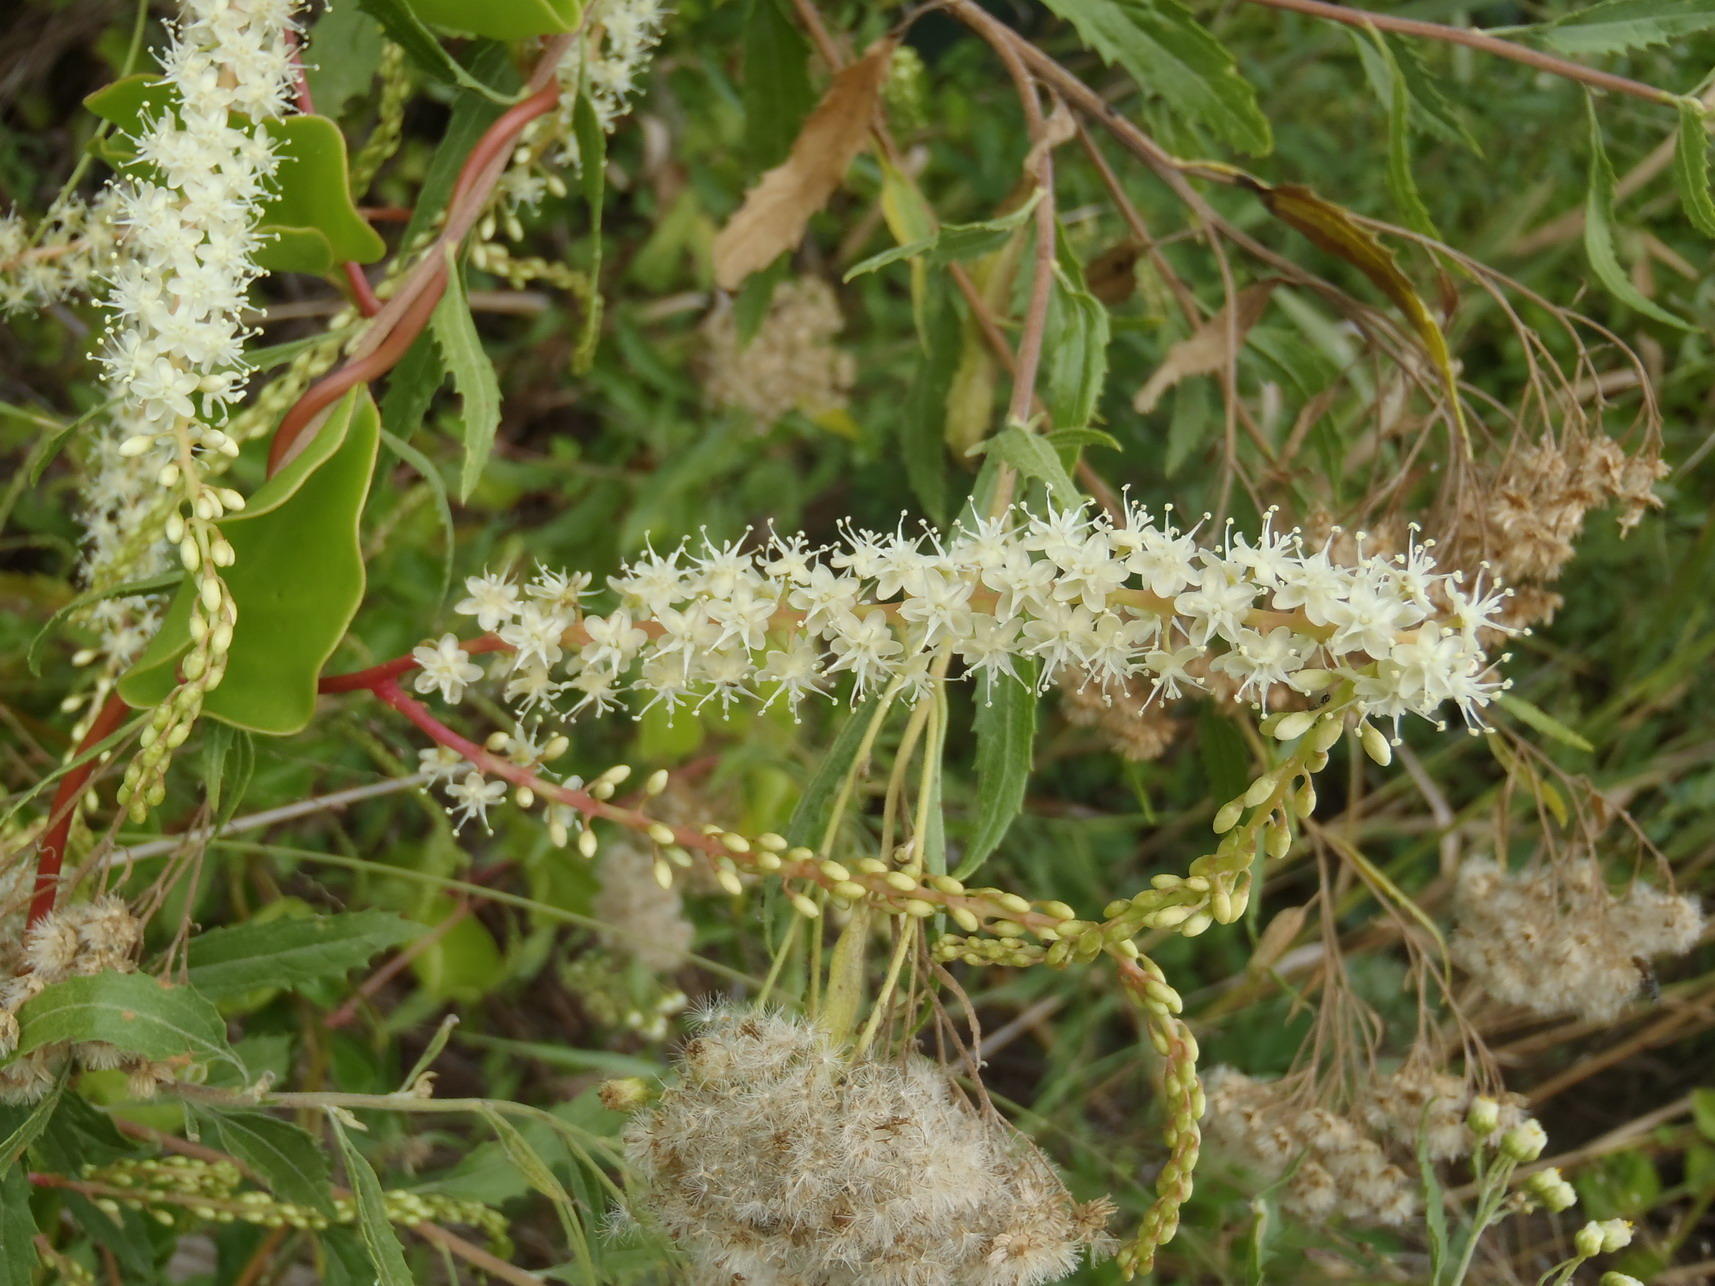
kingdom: Plantae
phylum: Tracheophyta
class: Magnoliopsida
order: Caryophyllales
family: Basellaceae
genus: Anredera
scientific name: Anredera cordifolia
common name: Heartleaf madeiravine
